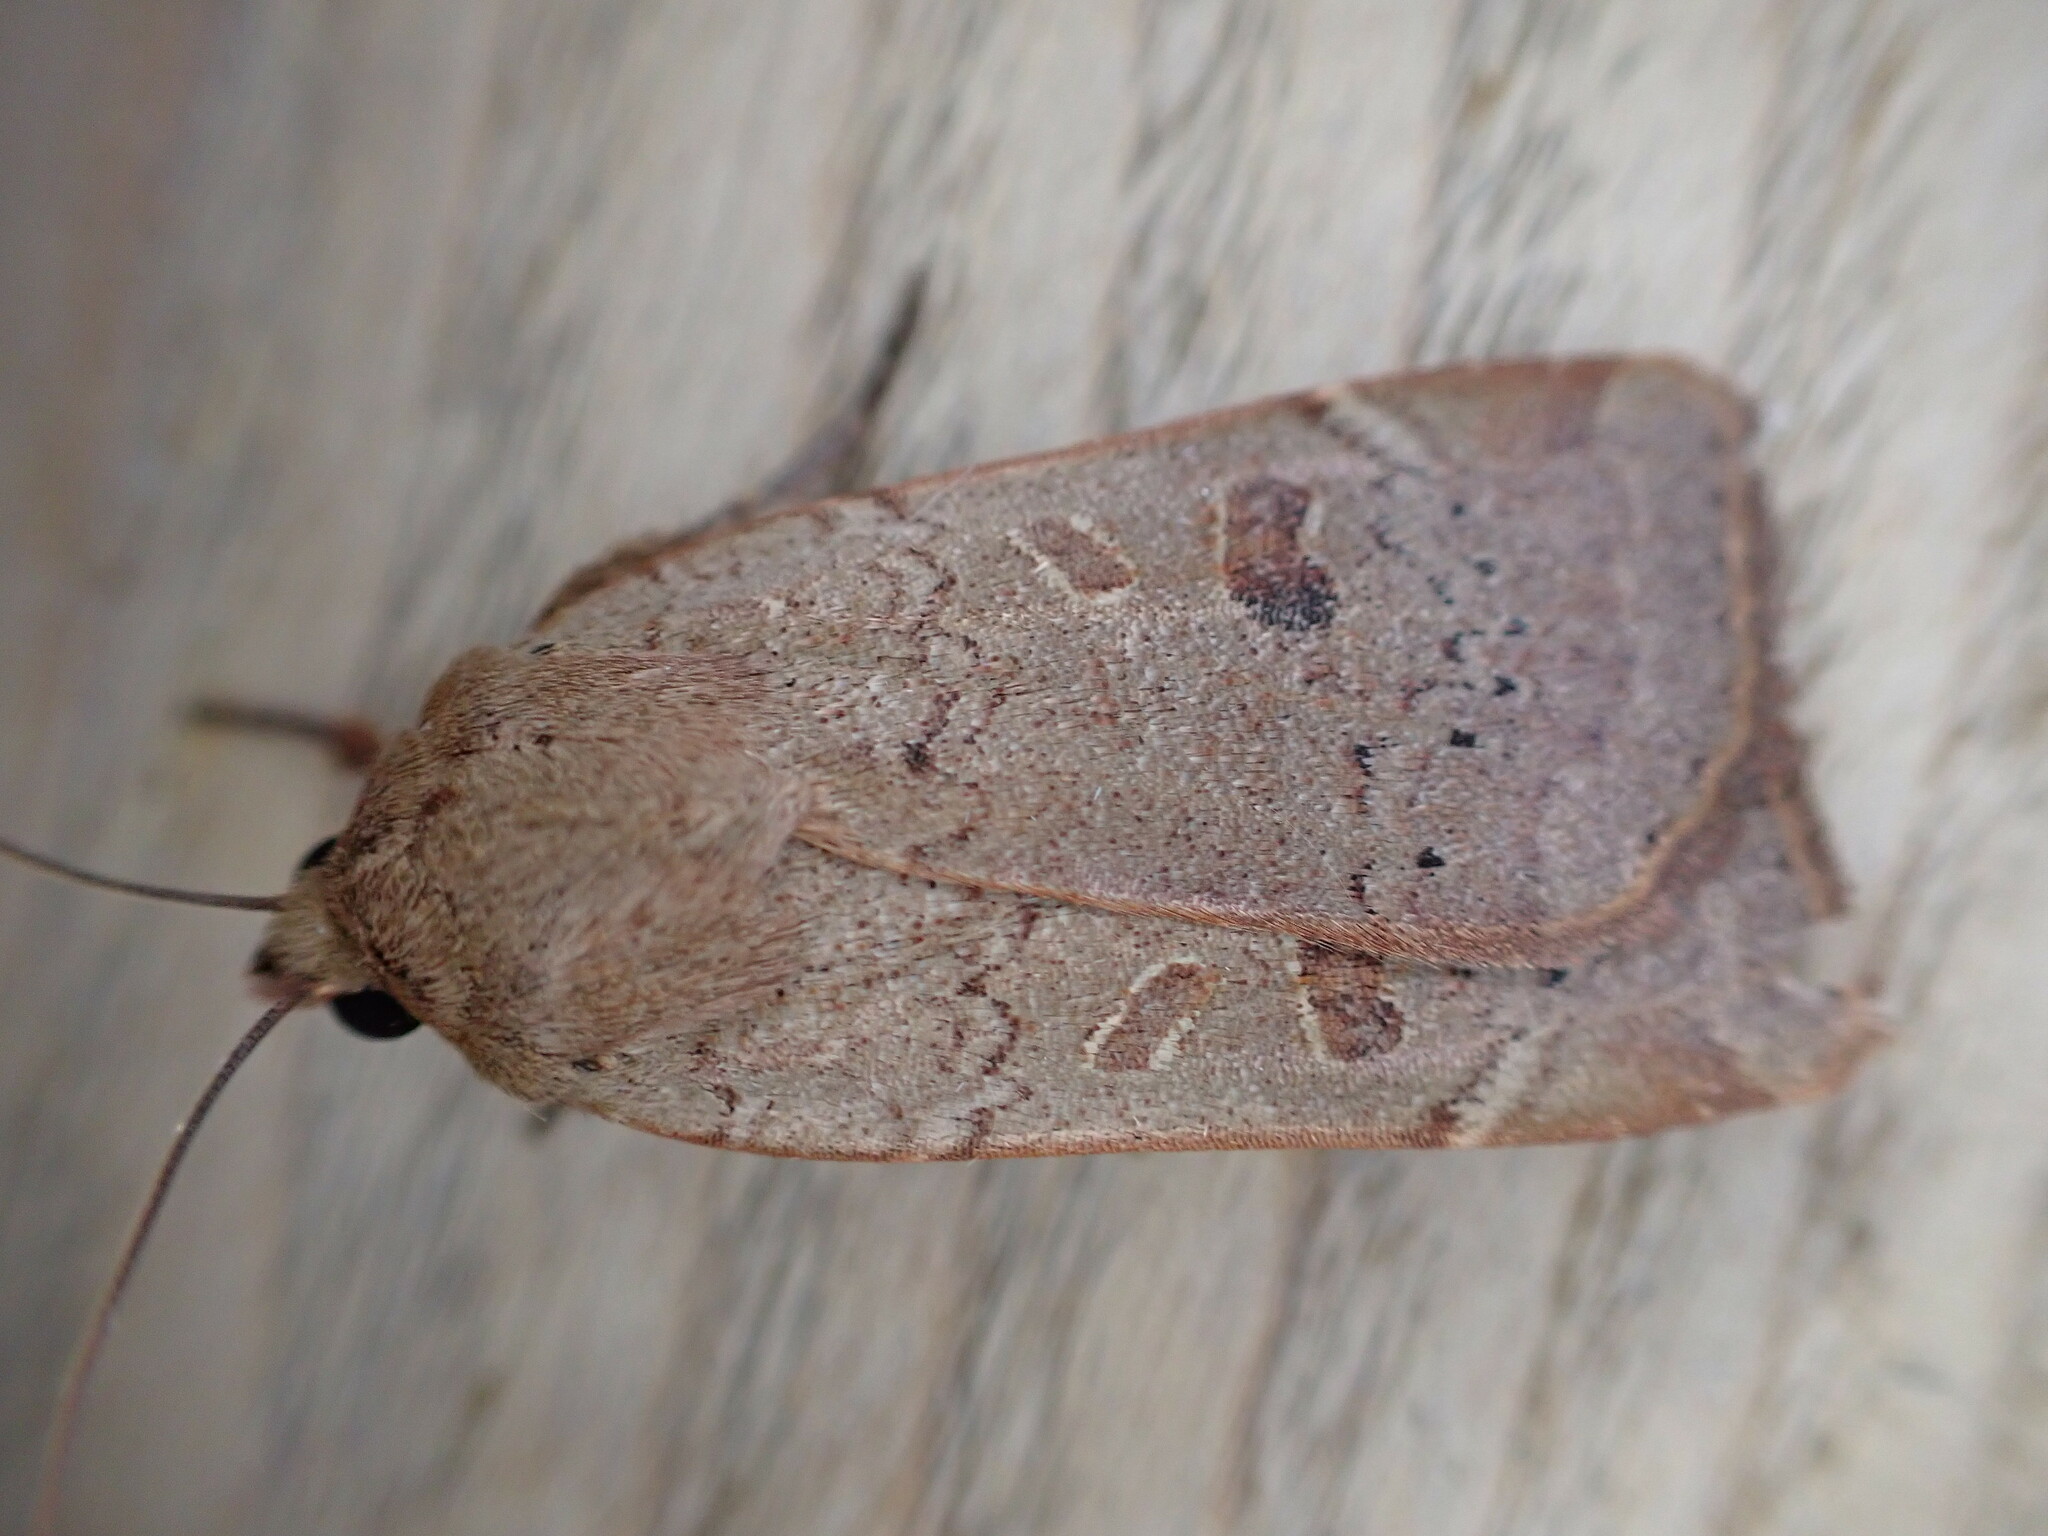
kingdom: Animalia
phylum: Arthropoda
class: Insecta
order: Lepidoptera
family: Noctuidae
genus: Noctua
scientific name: Noctua comes
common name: Lesser yellow underwing
